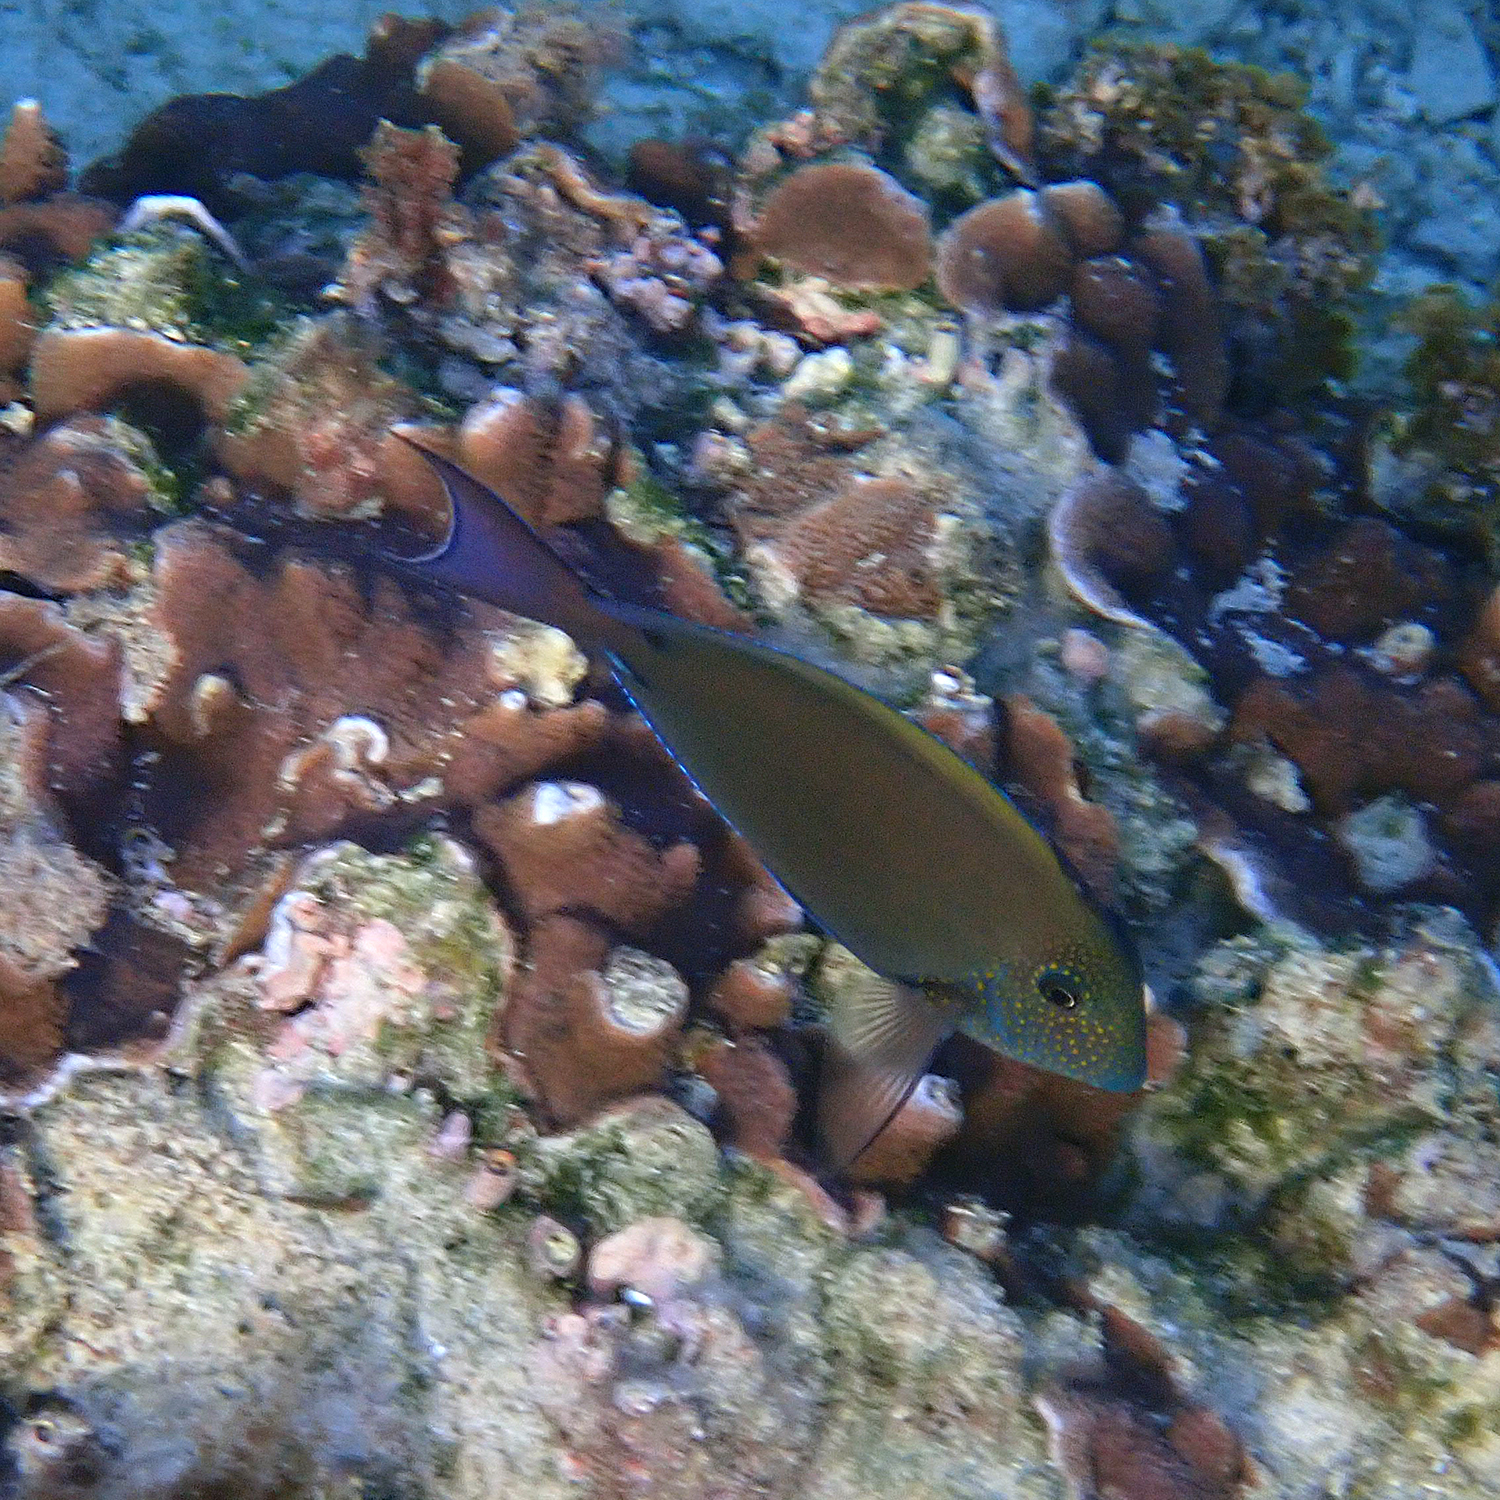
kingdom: Animalia
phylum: Chordata
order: Perciformes
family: Acanthuridae
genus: Acanthurus
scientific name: Acanthurus nigrofuscus
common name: Blackspot surgeonfish
